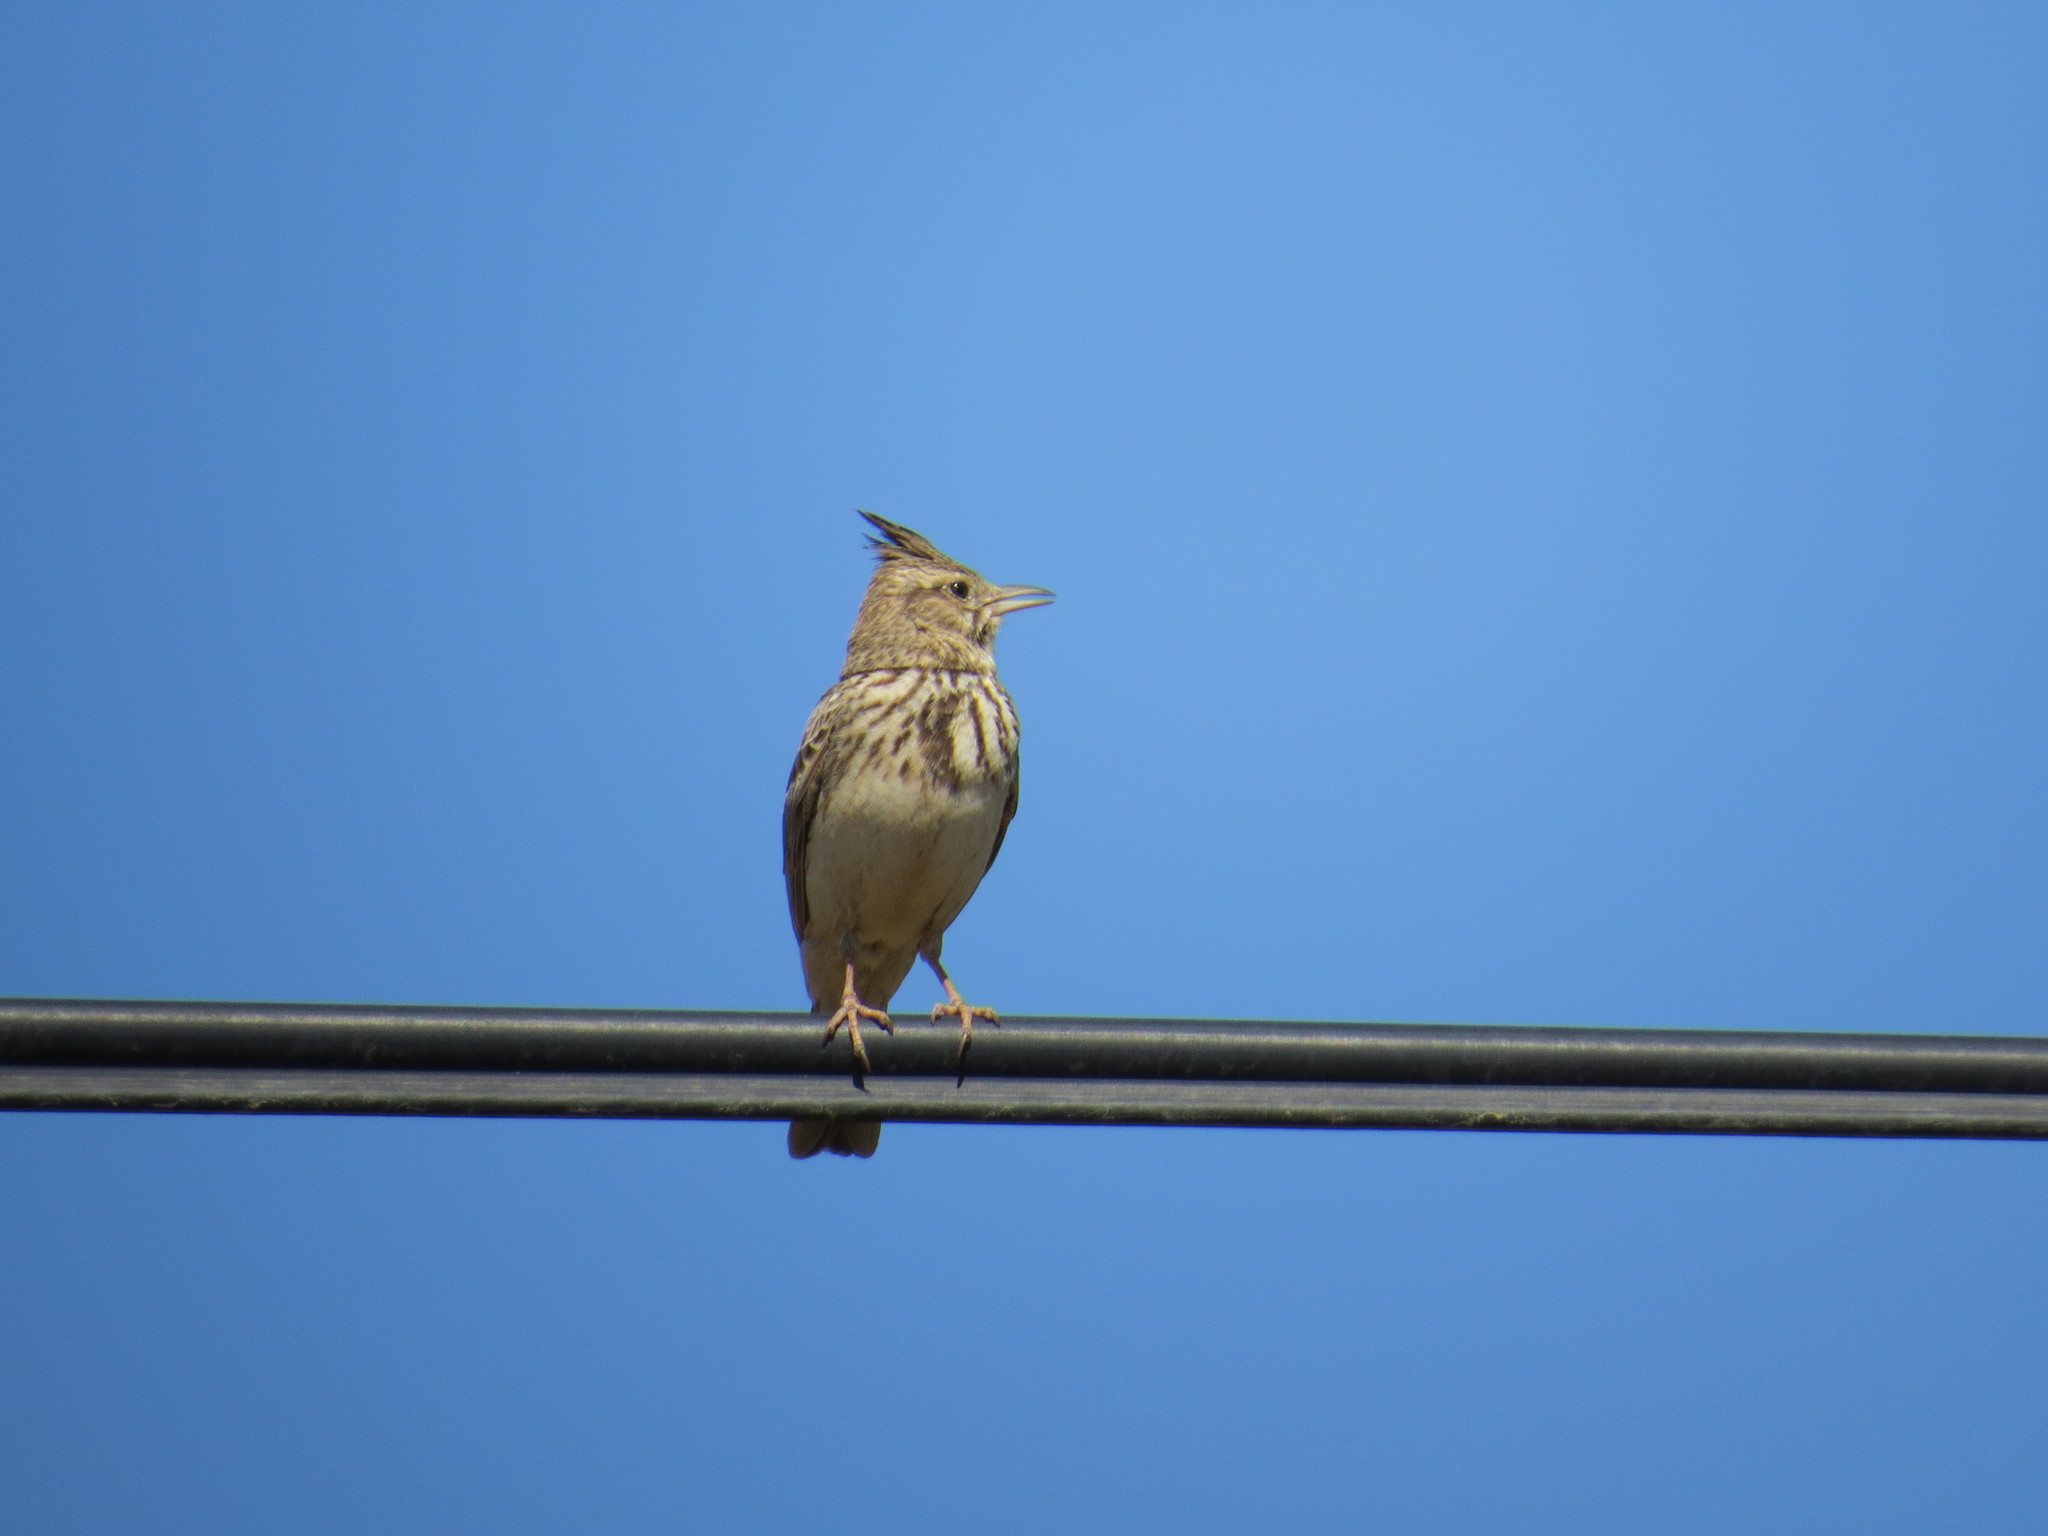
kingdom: Animalia
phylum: Chordata
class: Aves
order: Passeriformes
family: Alaudidae
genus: Galerida
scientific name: Galerida cristata
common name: Crested lark
